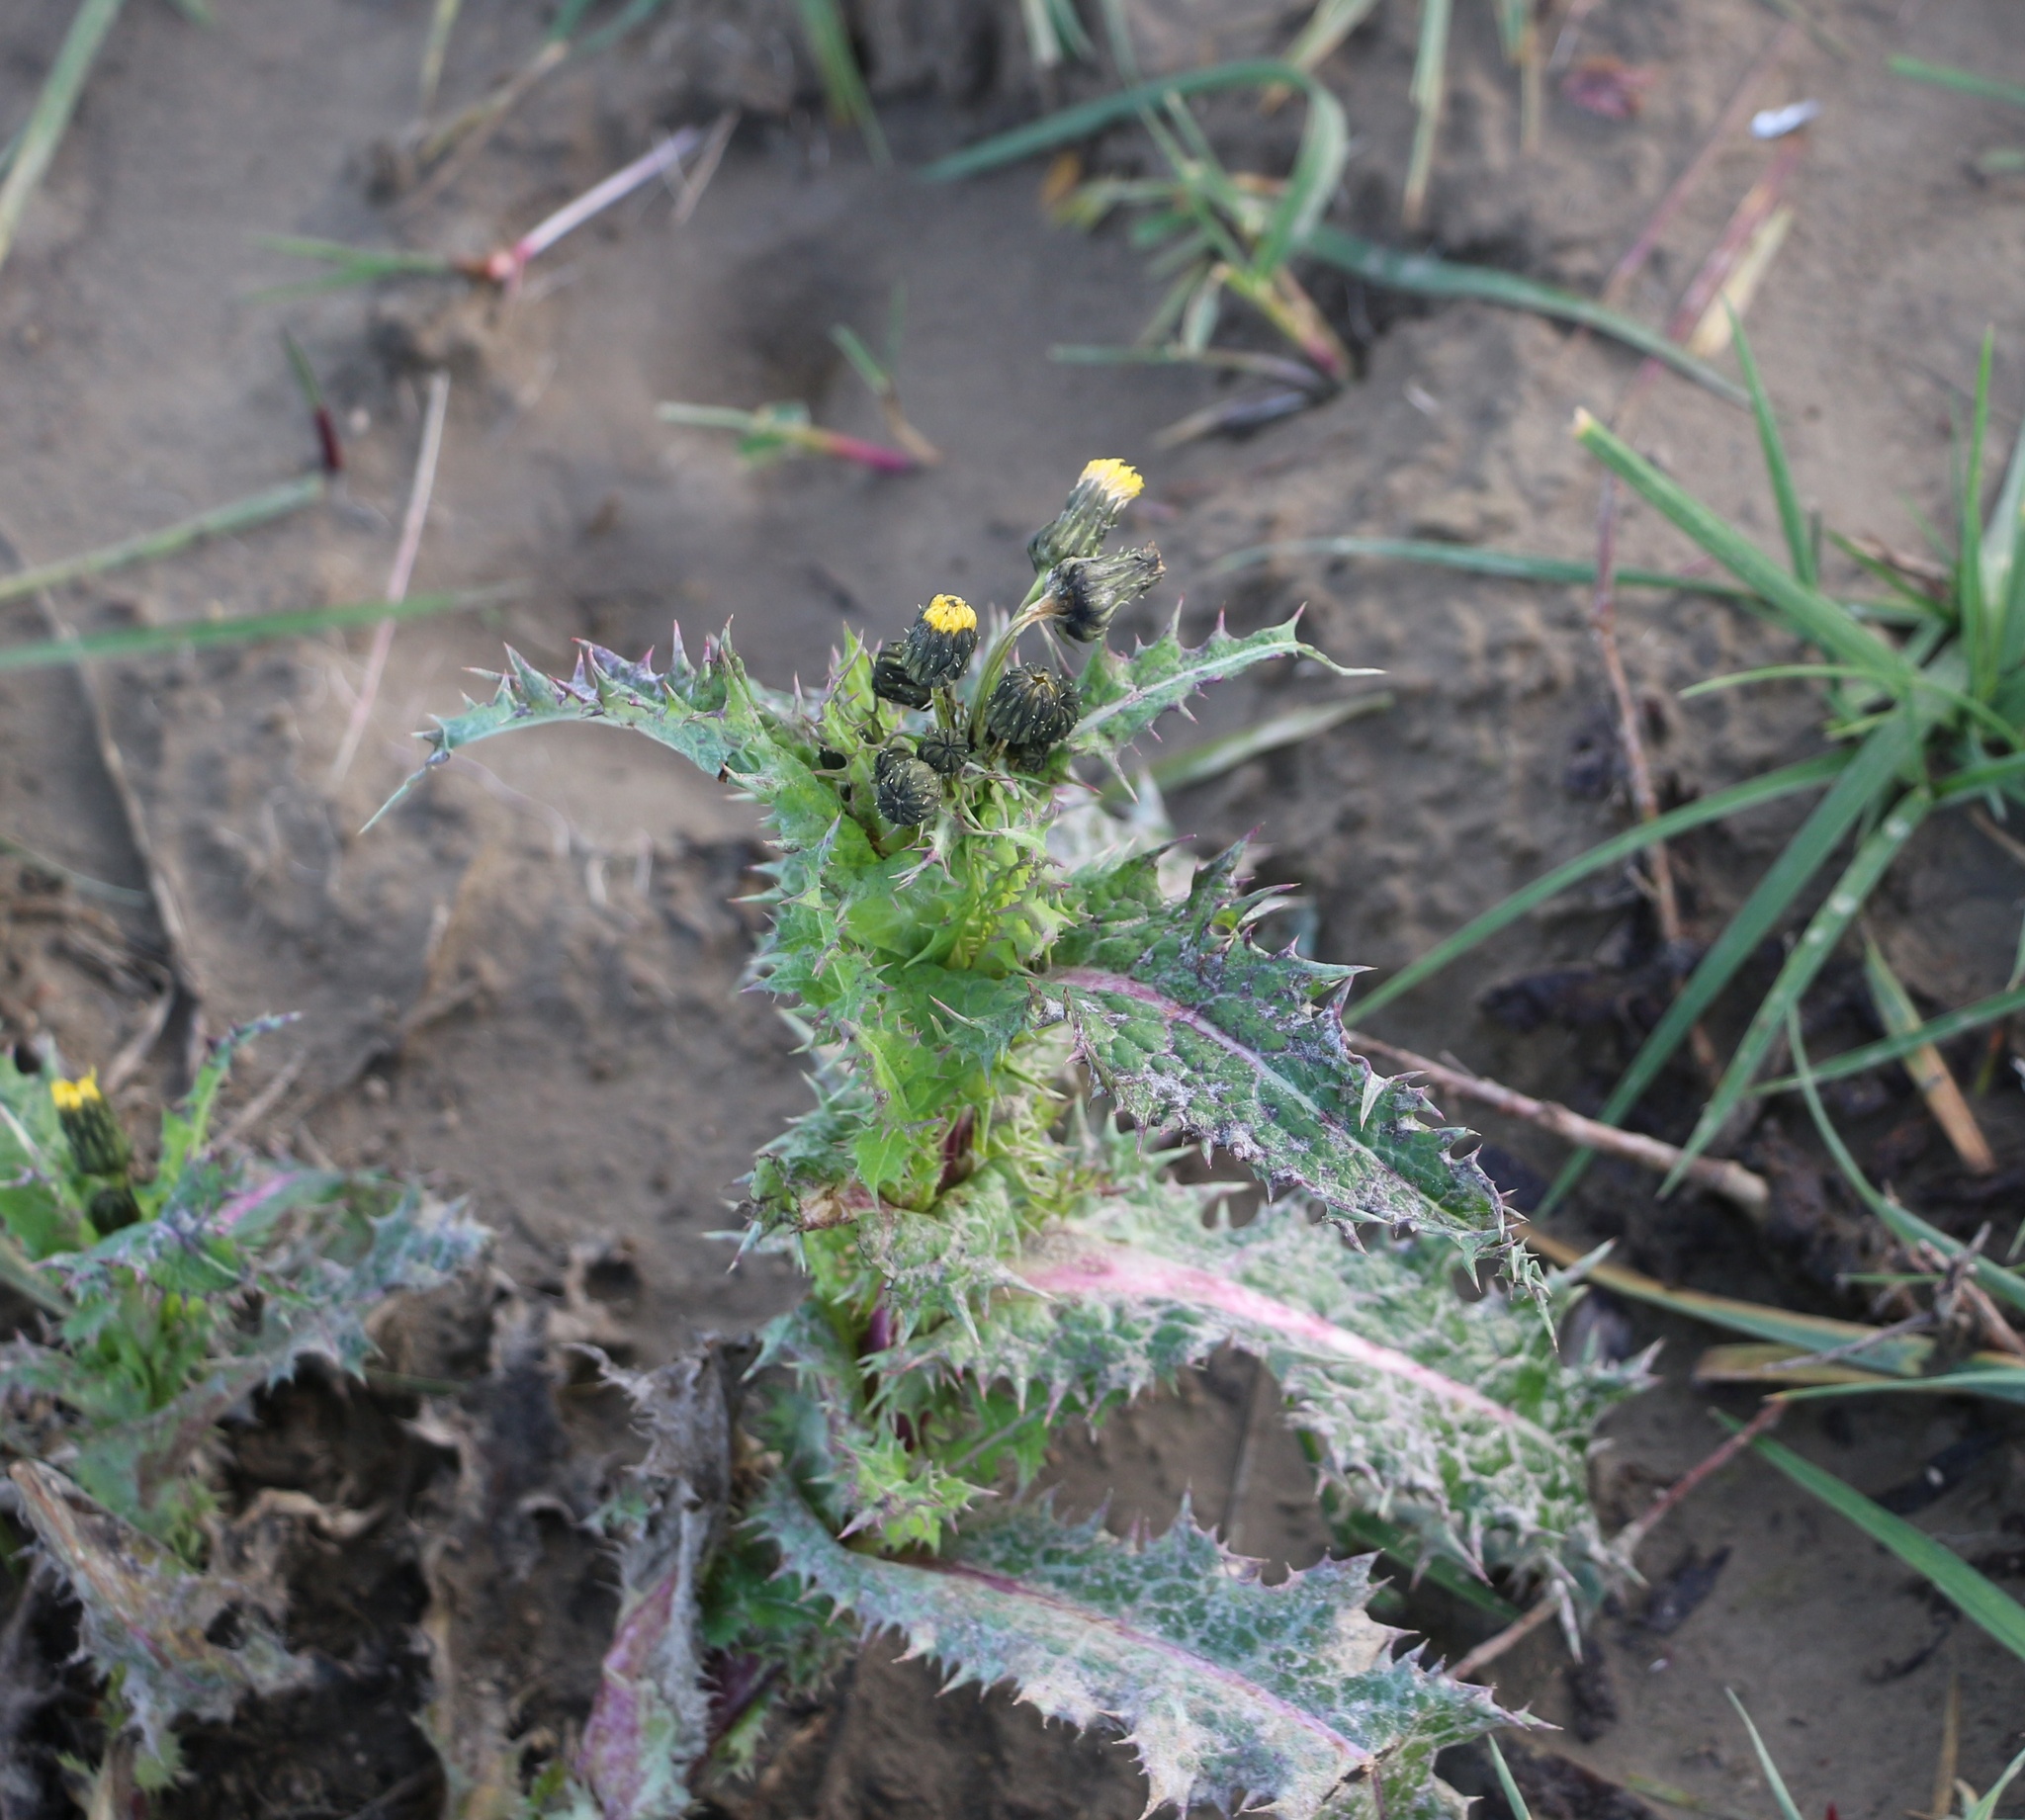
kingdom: Plantae
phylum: Tracheophyta
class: Magnoliopsida
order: Asterales
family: Asteraceae
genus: Sonchus
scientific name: Sonchus asper
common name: Prickly sow-thistle
